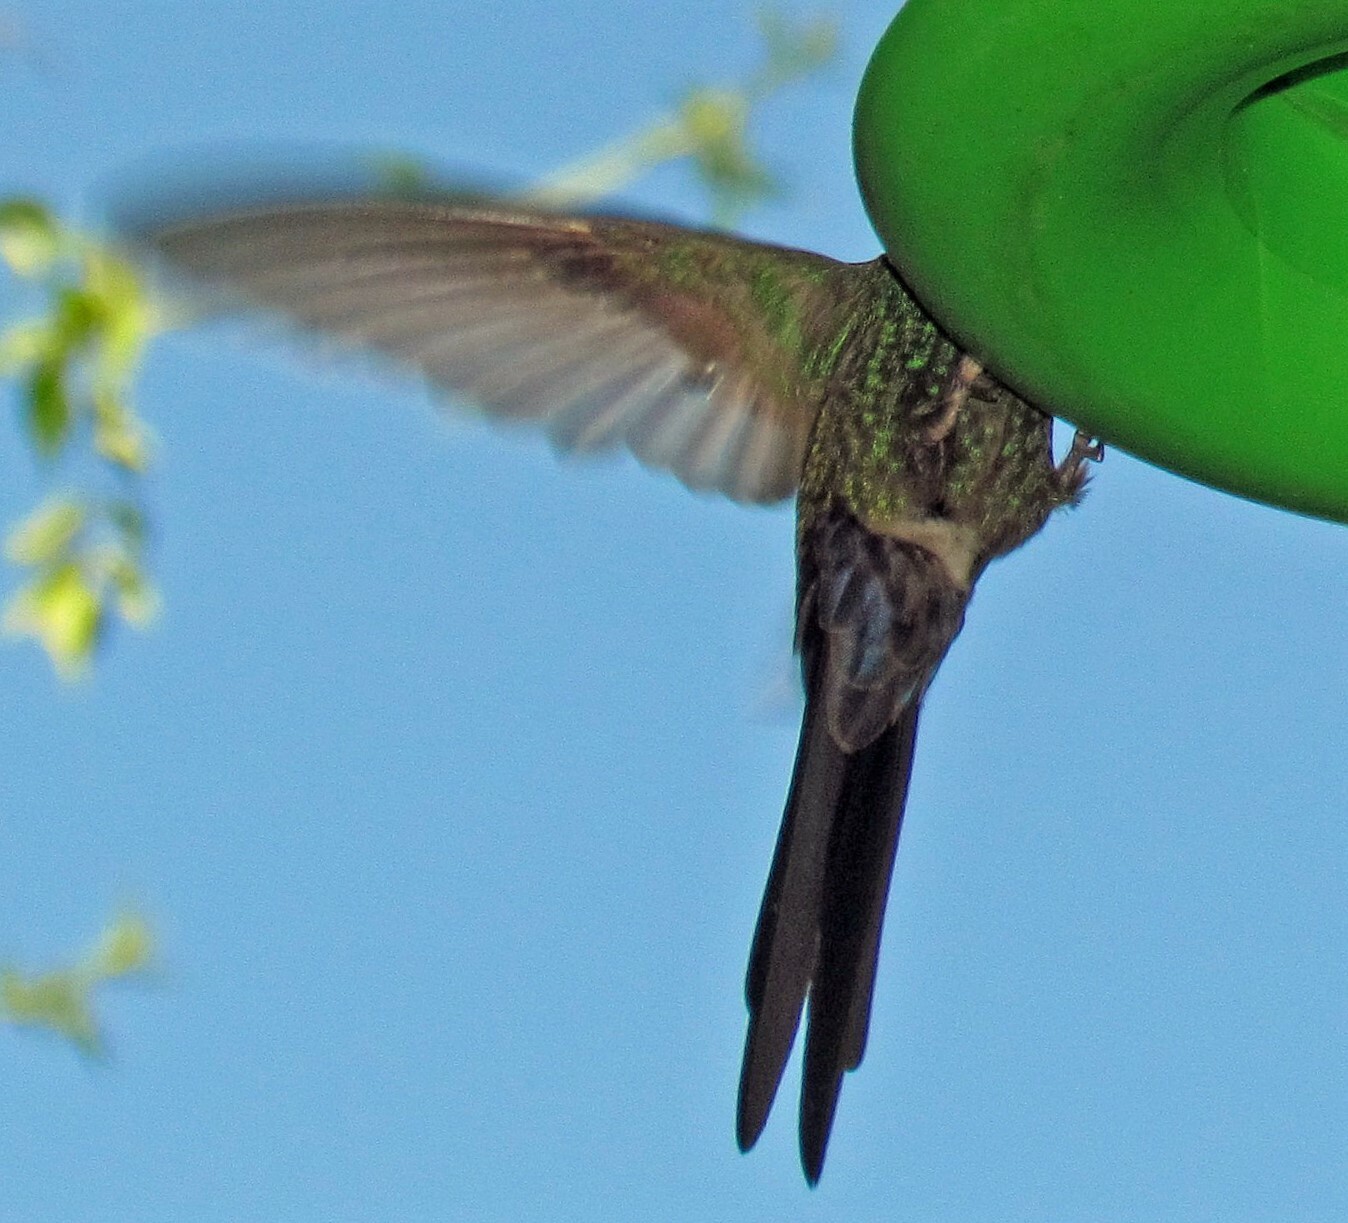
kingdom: Animalia
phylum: Chordata
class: Aves
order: Apodiformes
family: Trochilidae
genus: Eupetomena
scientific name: Eupetomena macroura
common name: Swallow-tailed hummingbird
